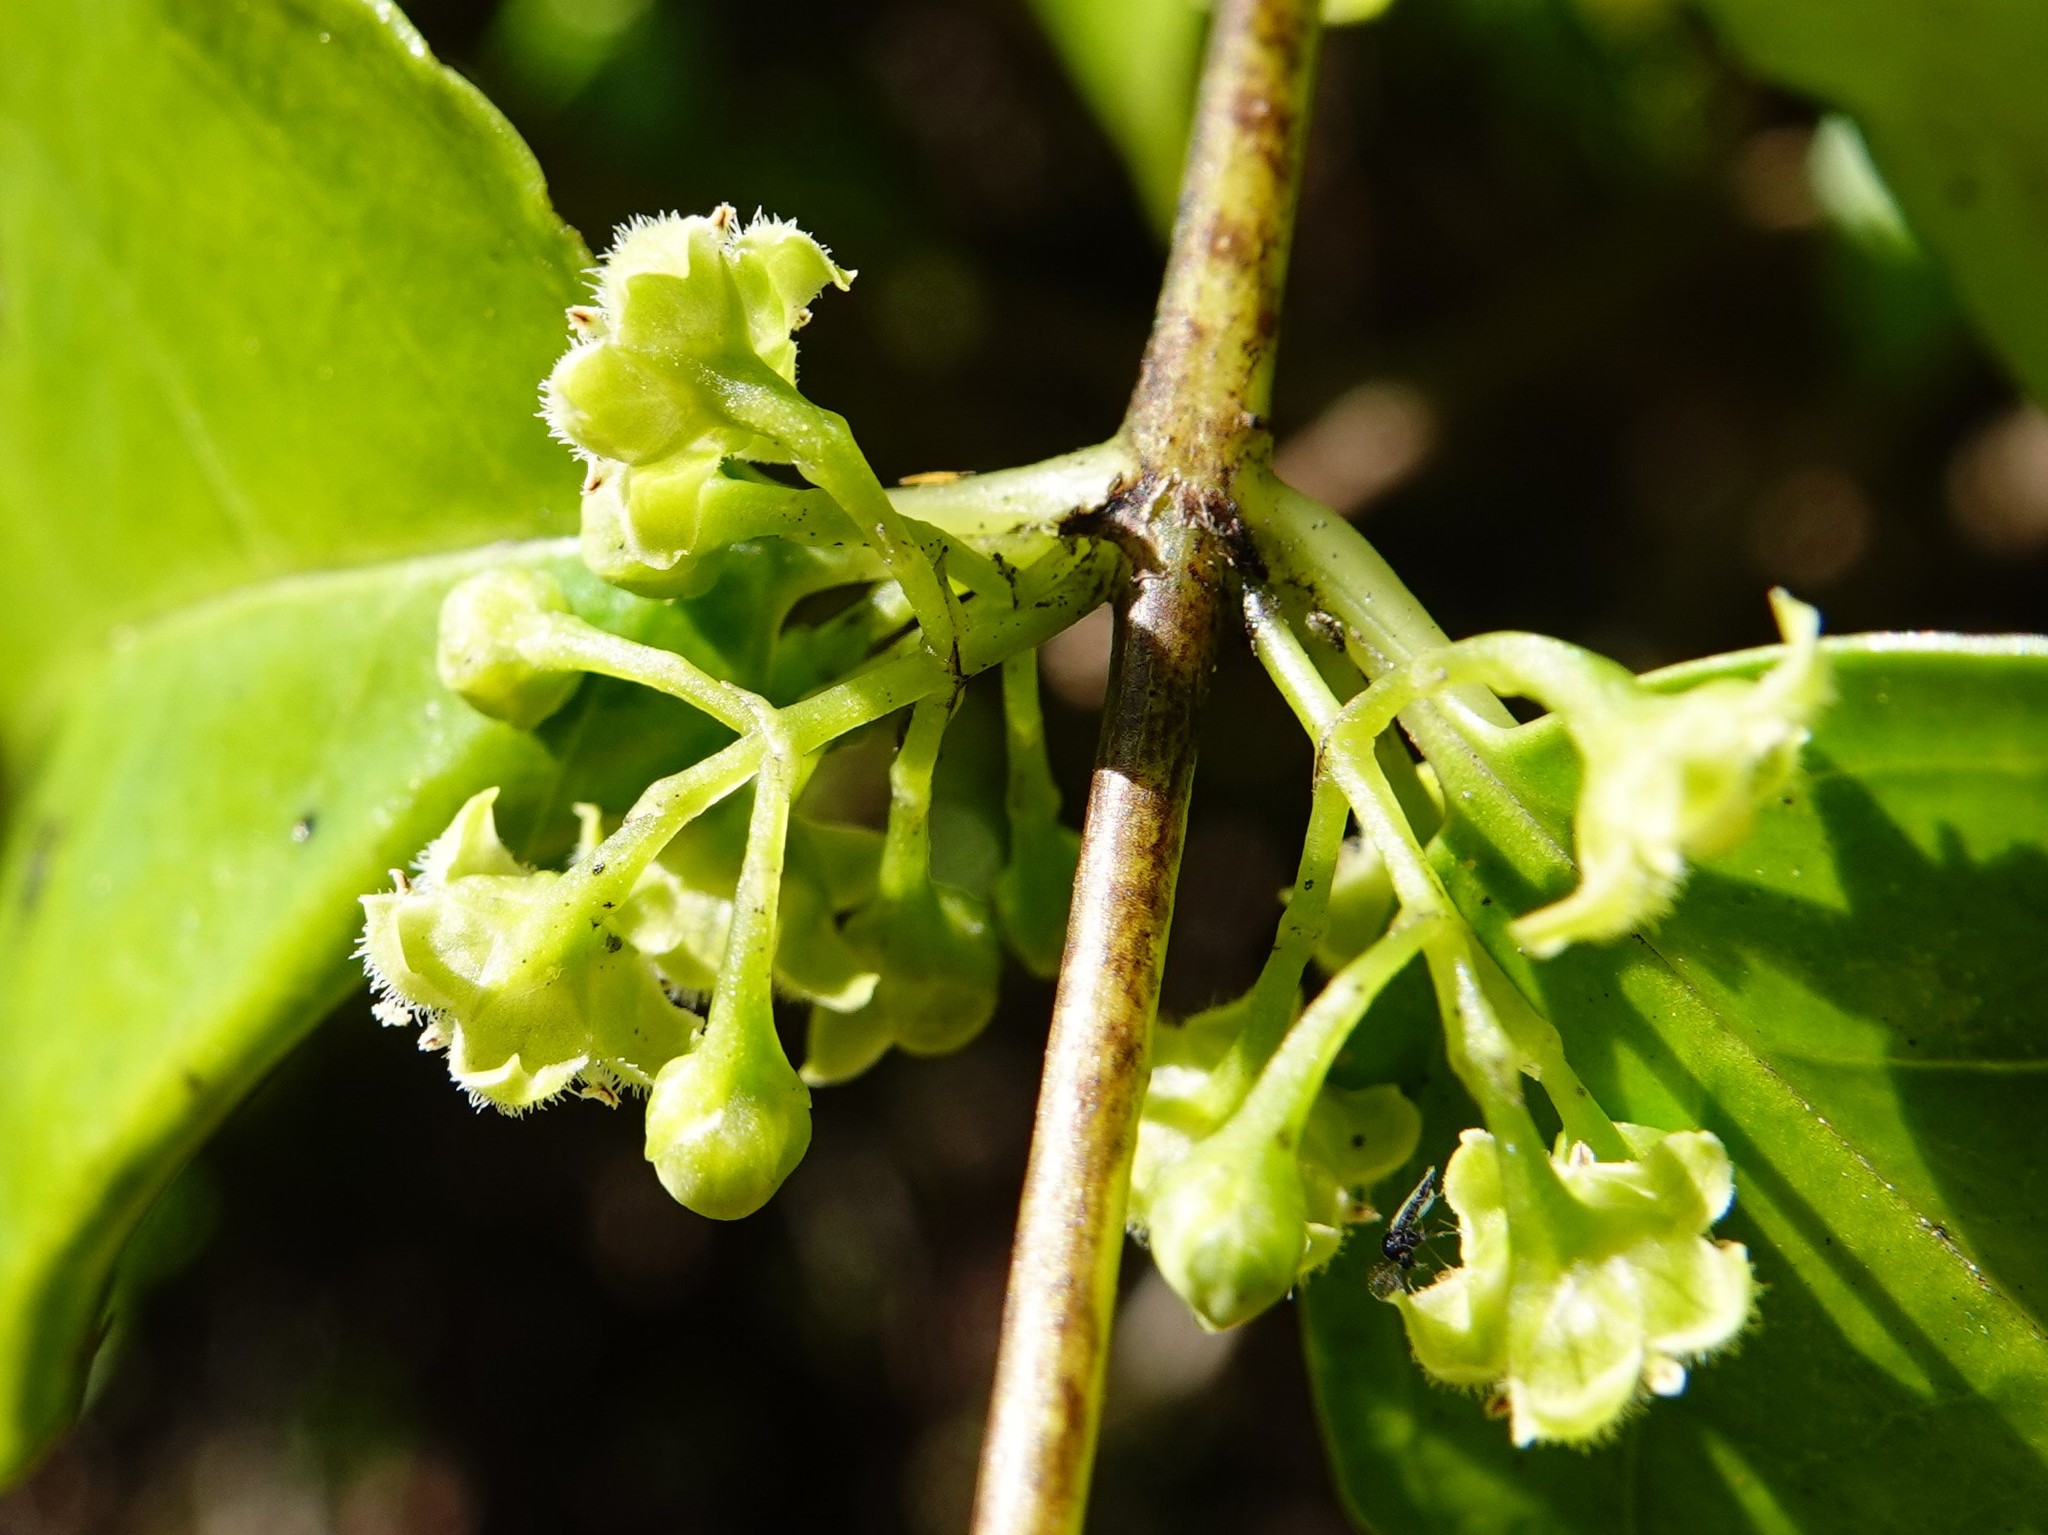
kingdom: Plantae
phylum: Tracheophyta
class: Magnoliopsida
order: Gentianales
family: Loganiaceae
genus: Geniostoma
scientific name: Geniostoma ligustrifolium
